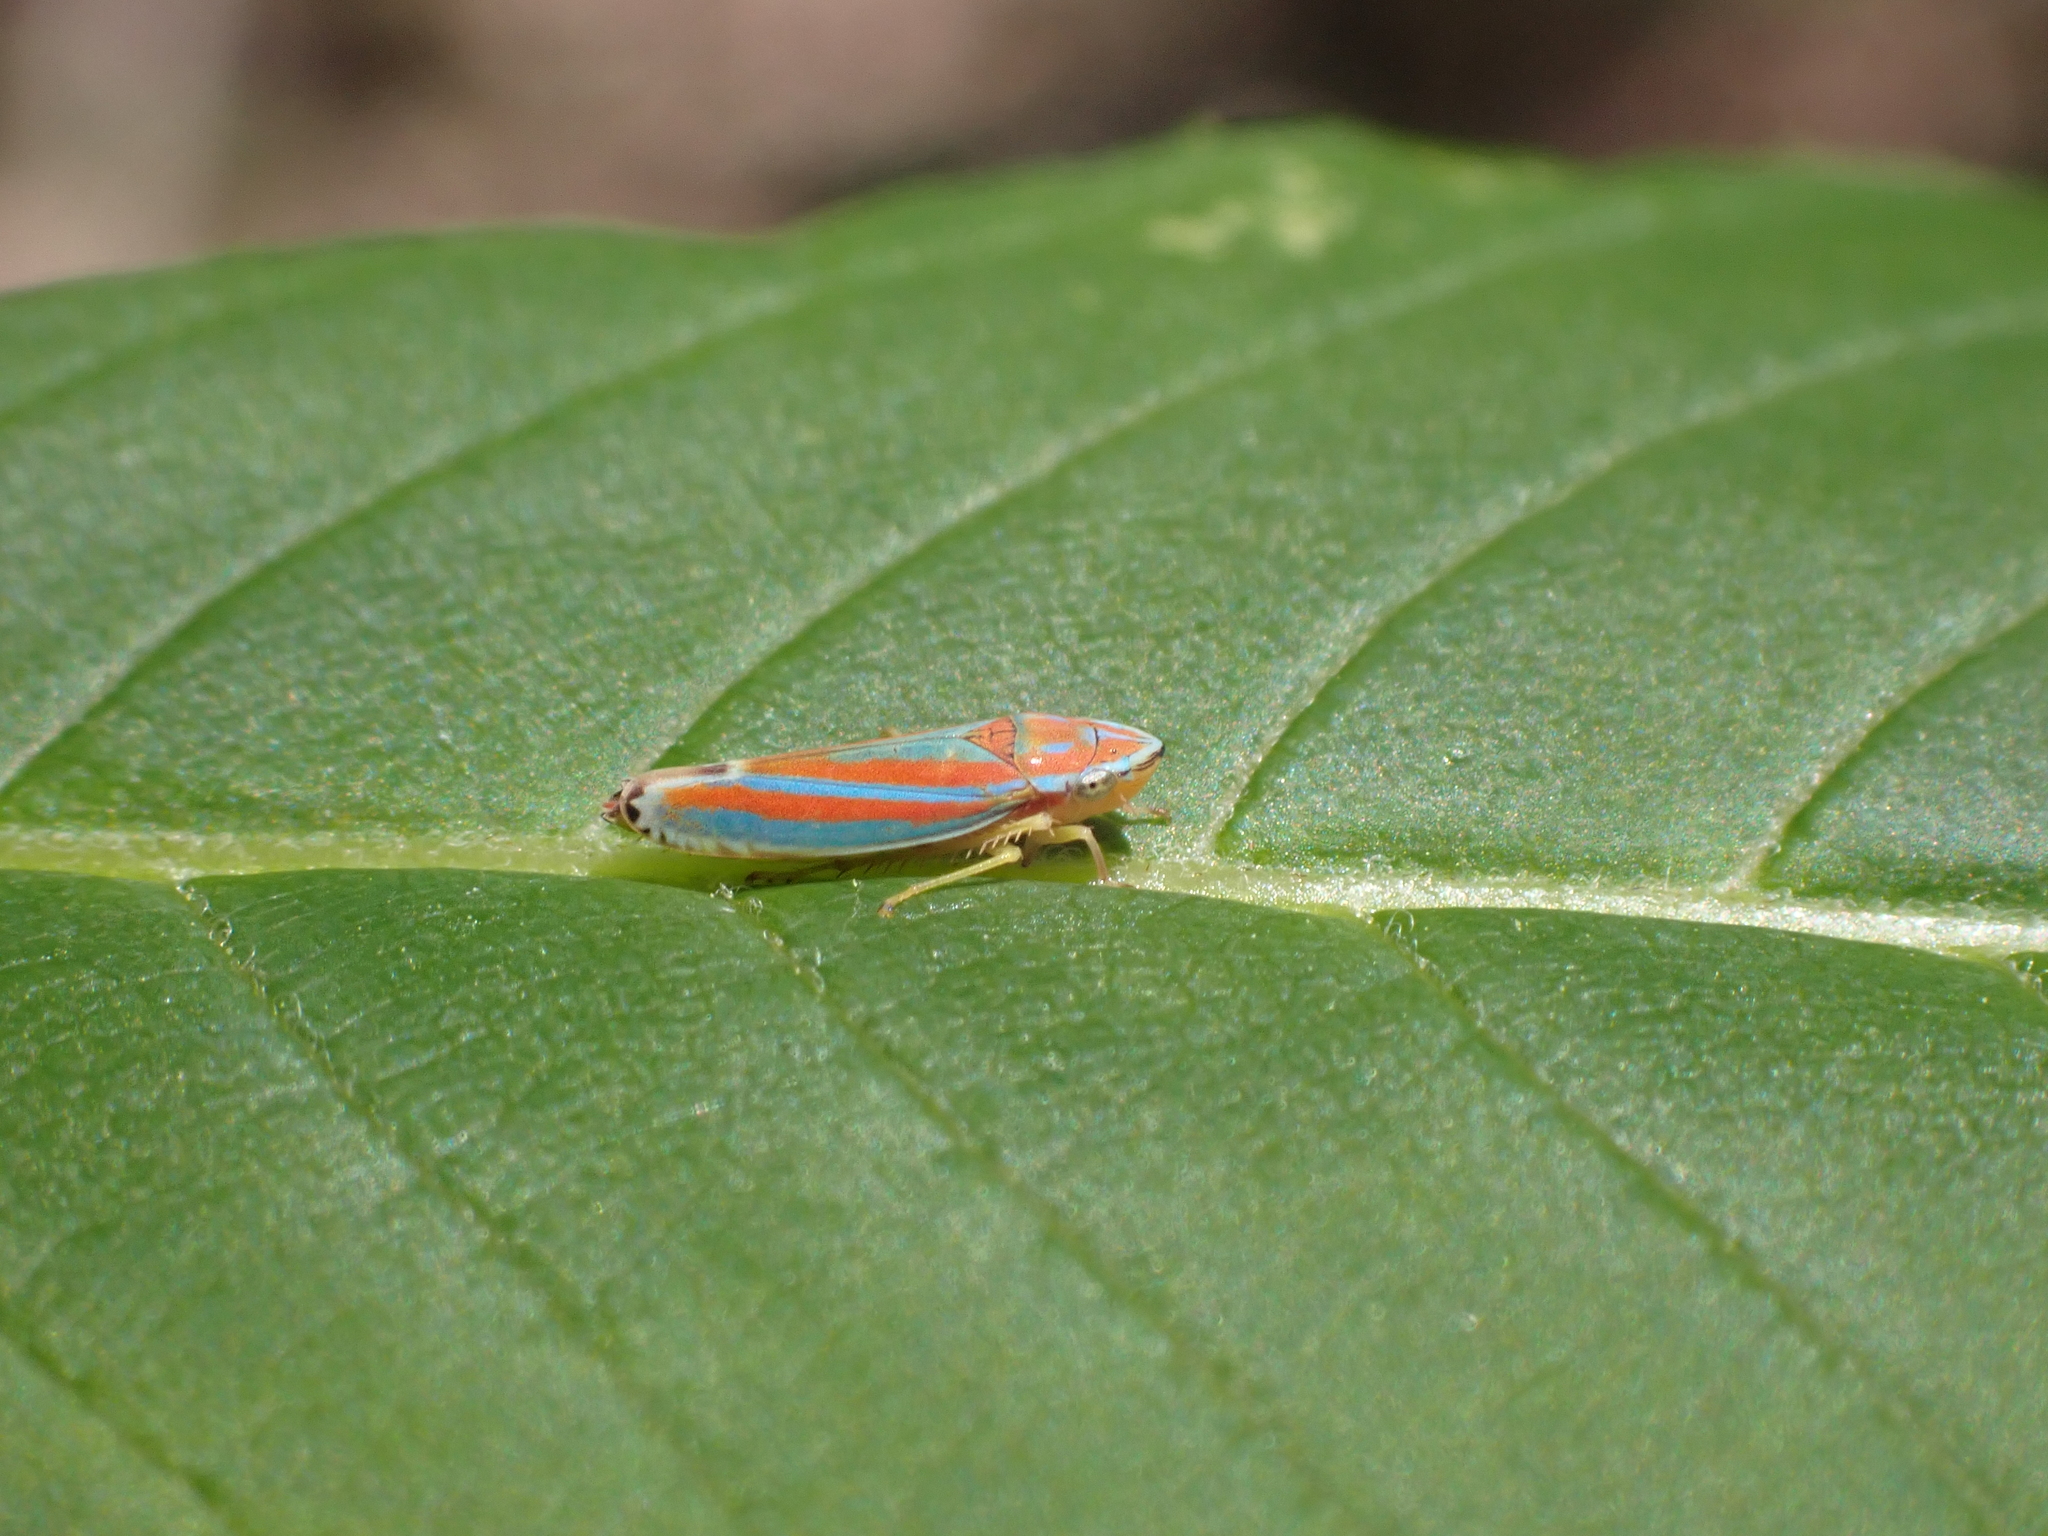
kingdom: Animalia
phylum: Arthropoda
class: Insecta
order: Hemiptera
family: Cicadellidae
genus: Graphocephala
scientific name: Graphocephala versuta
